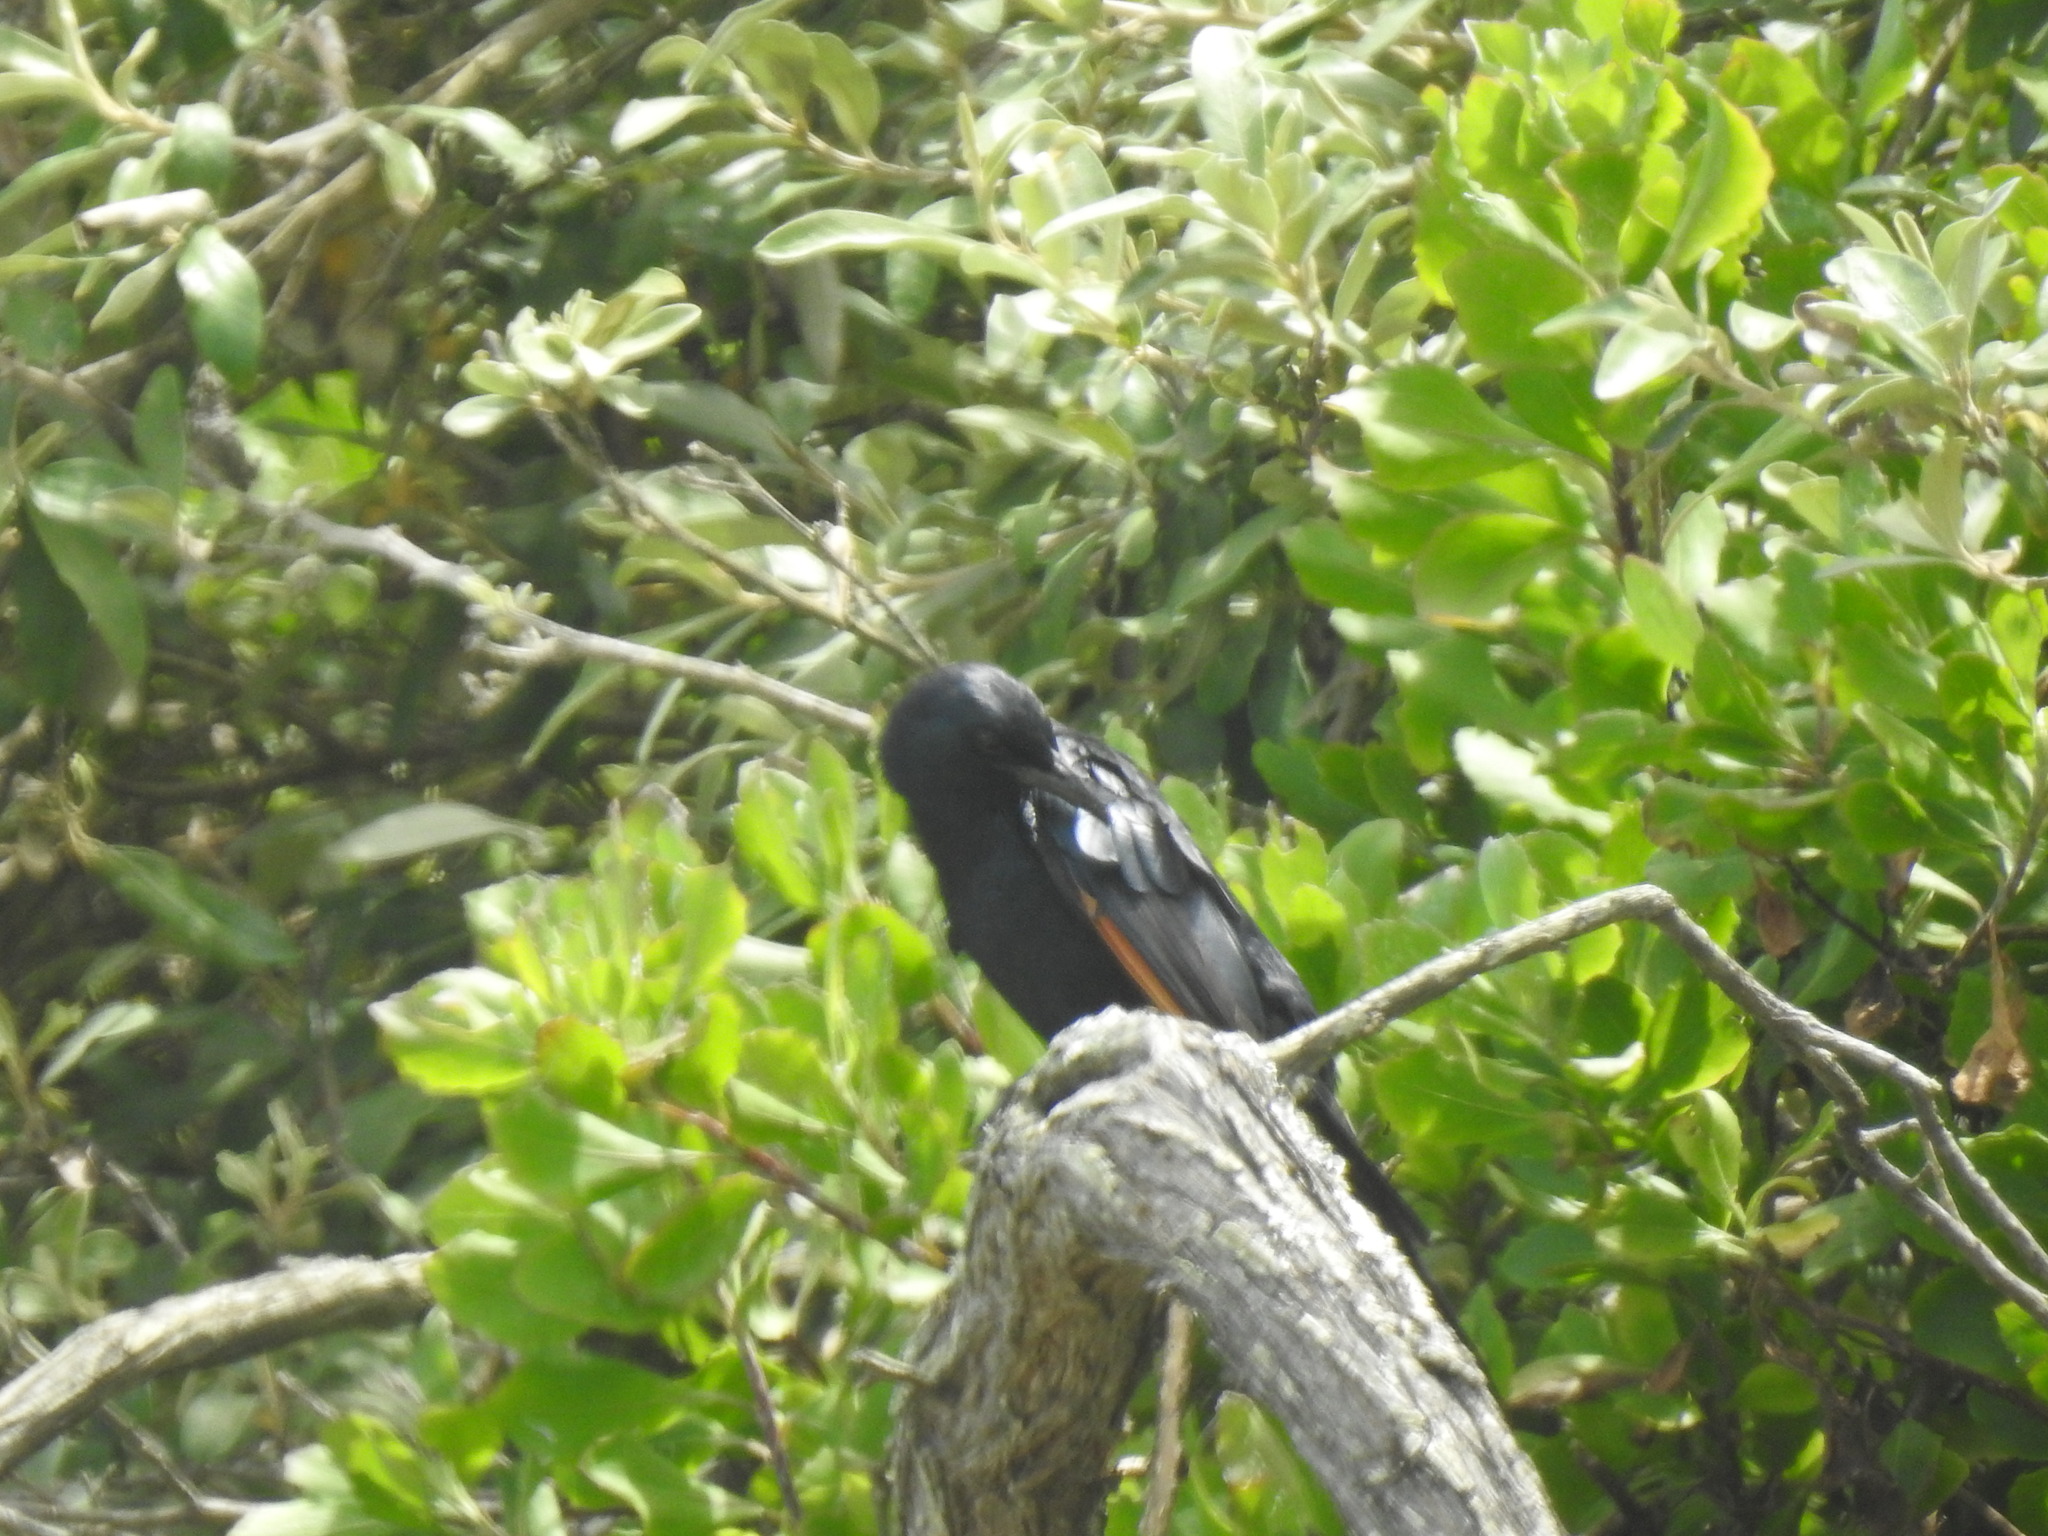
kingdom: Animalia
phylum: Chordata
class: Aves
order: Passeriformes
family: Sturnidae
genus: Onychognathus
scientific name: Onychognathus morio
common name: Red-winged starling
